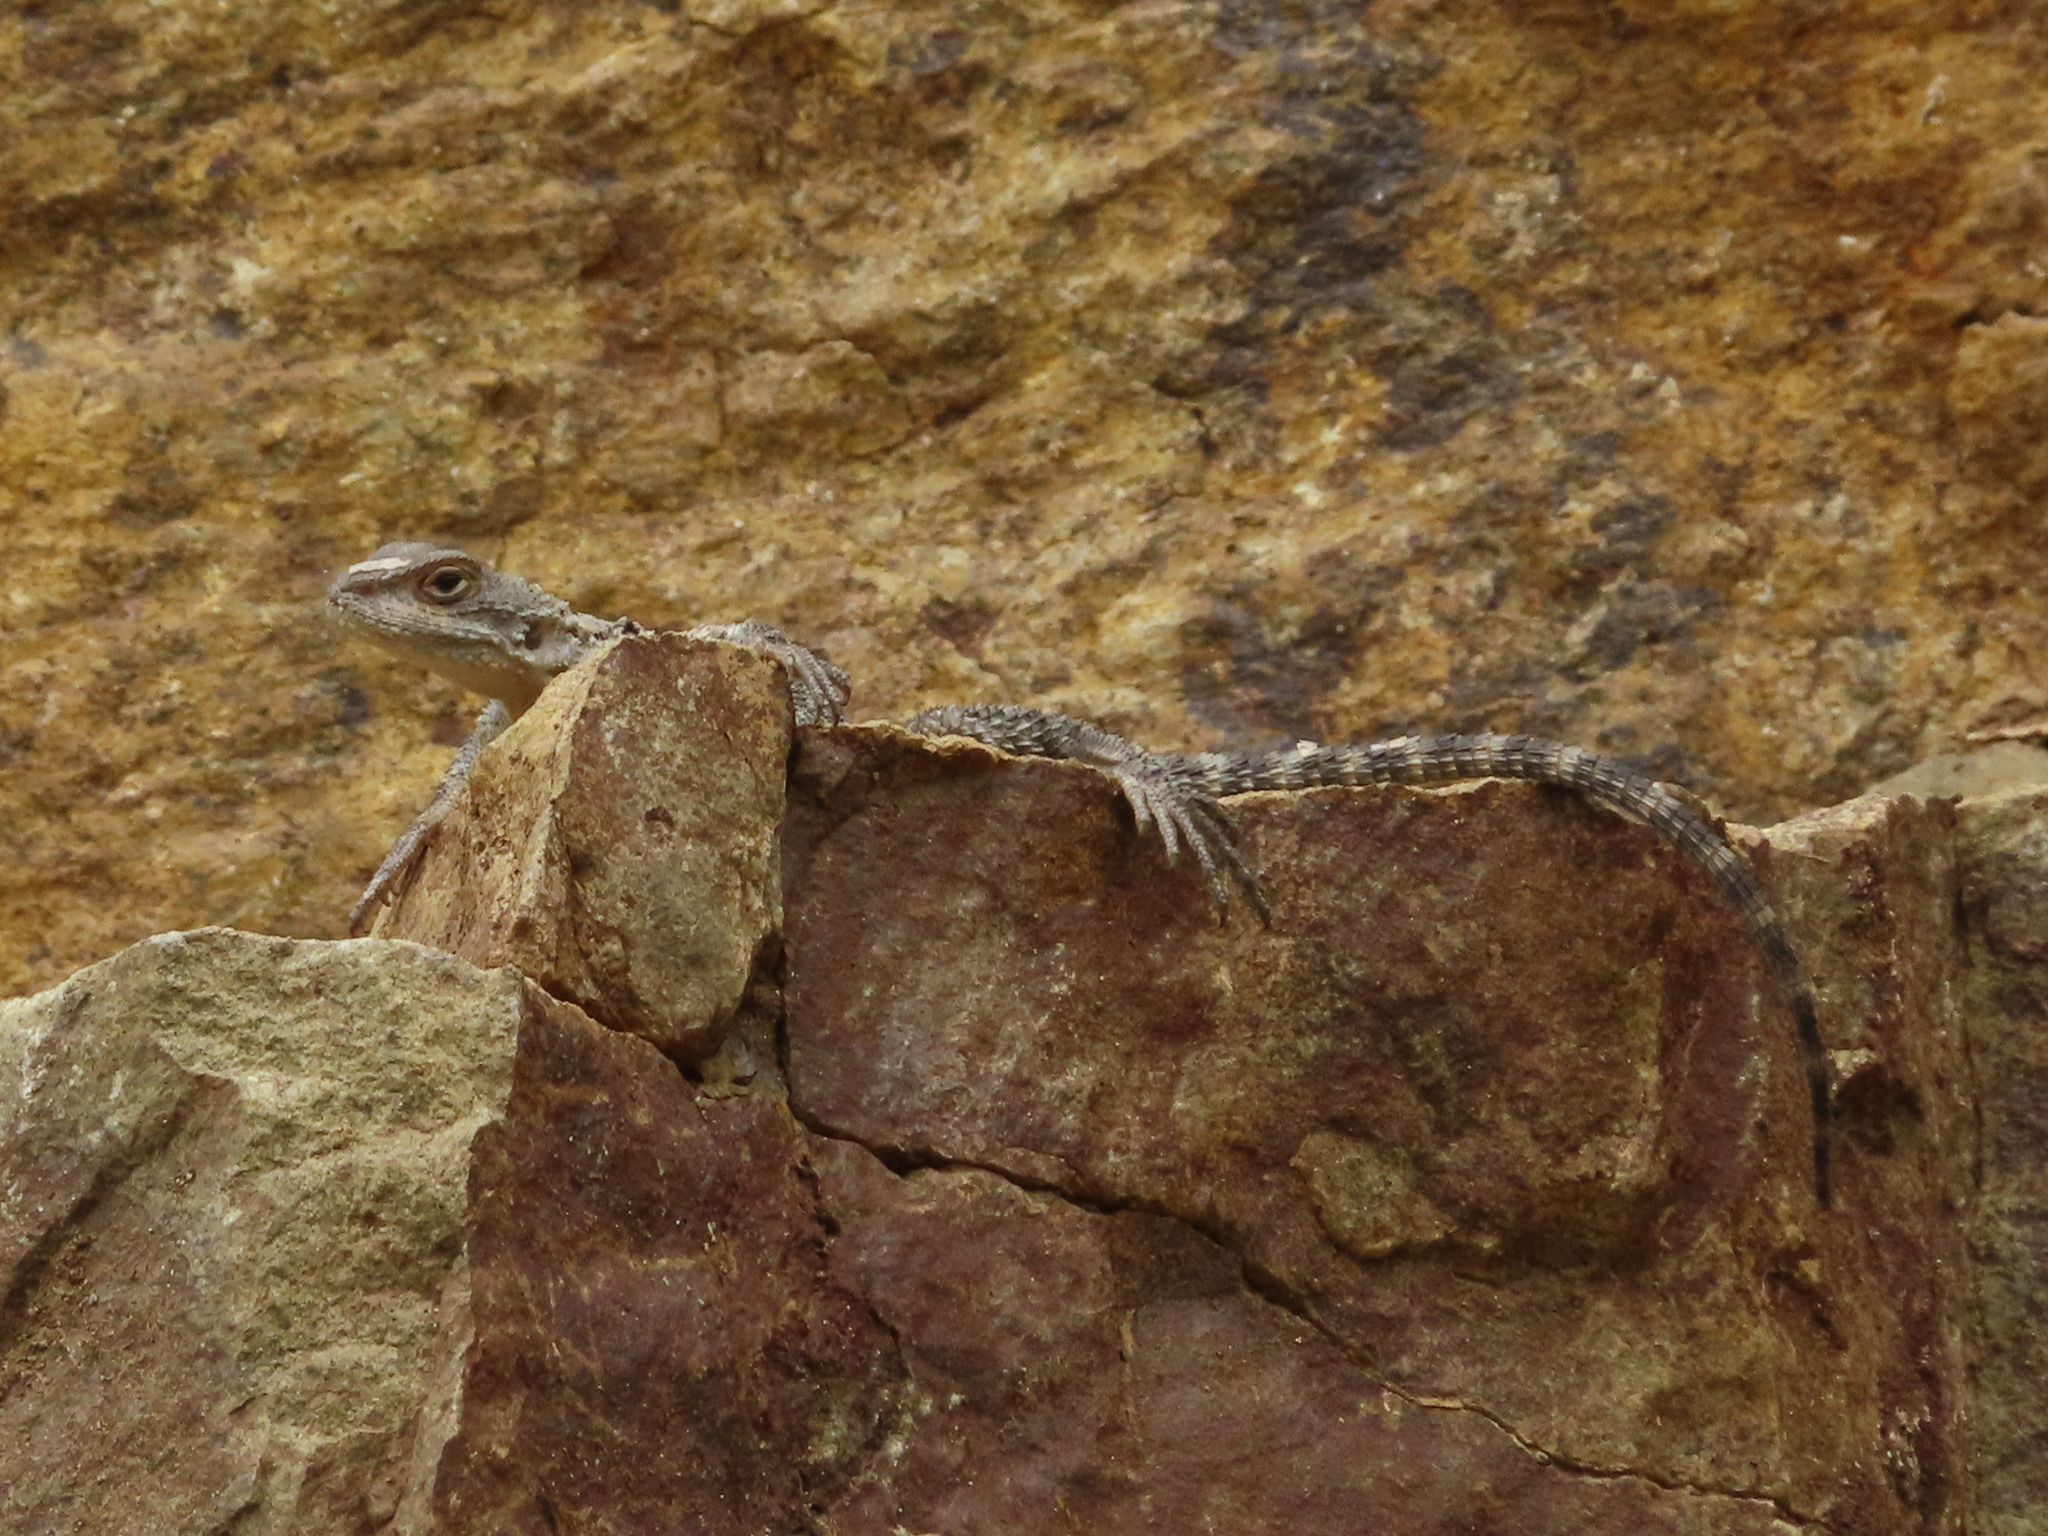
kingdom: Animalia
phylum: Chordata
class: Squamata
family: Agamidae
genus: Paralaudakia
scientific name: Paralaudakia caucasia
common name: Caucasian agama
